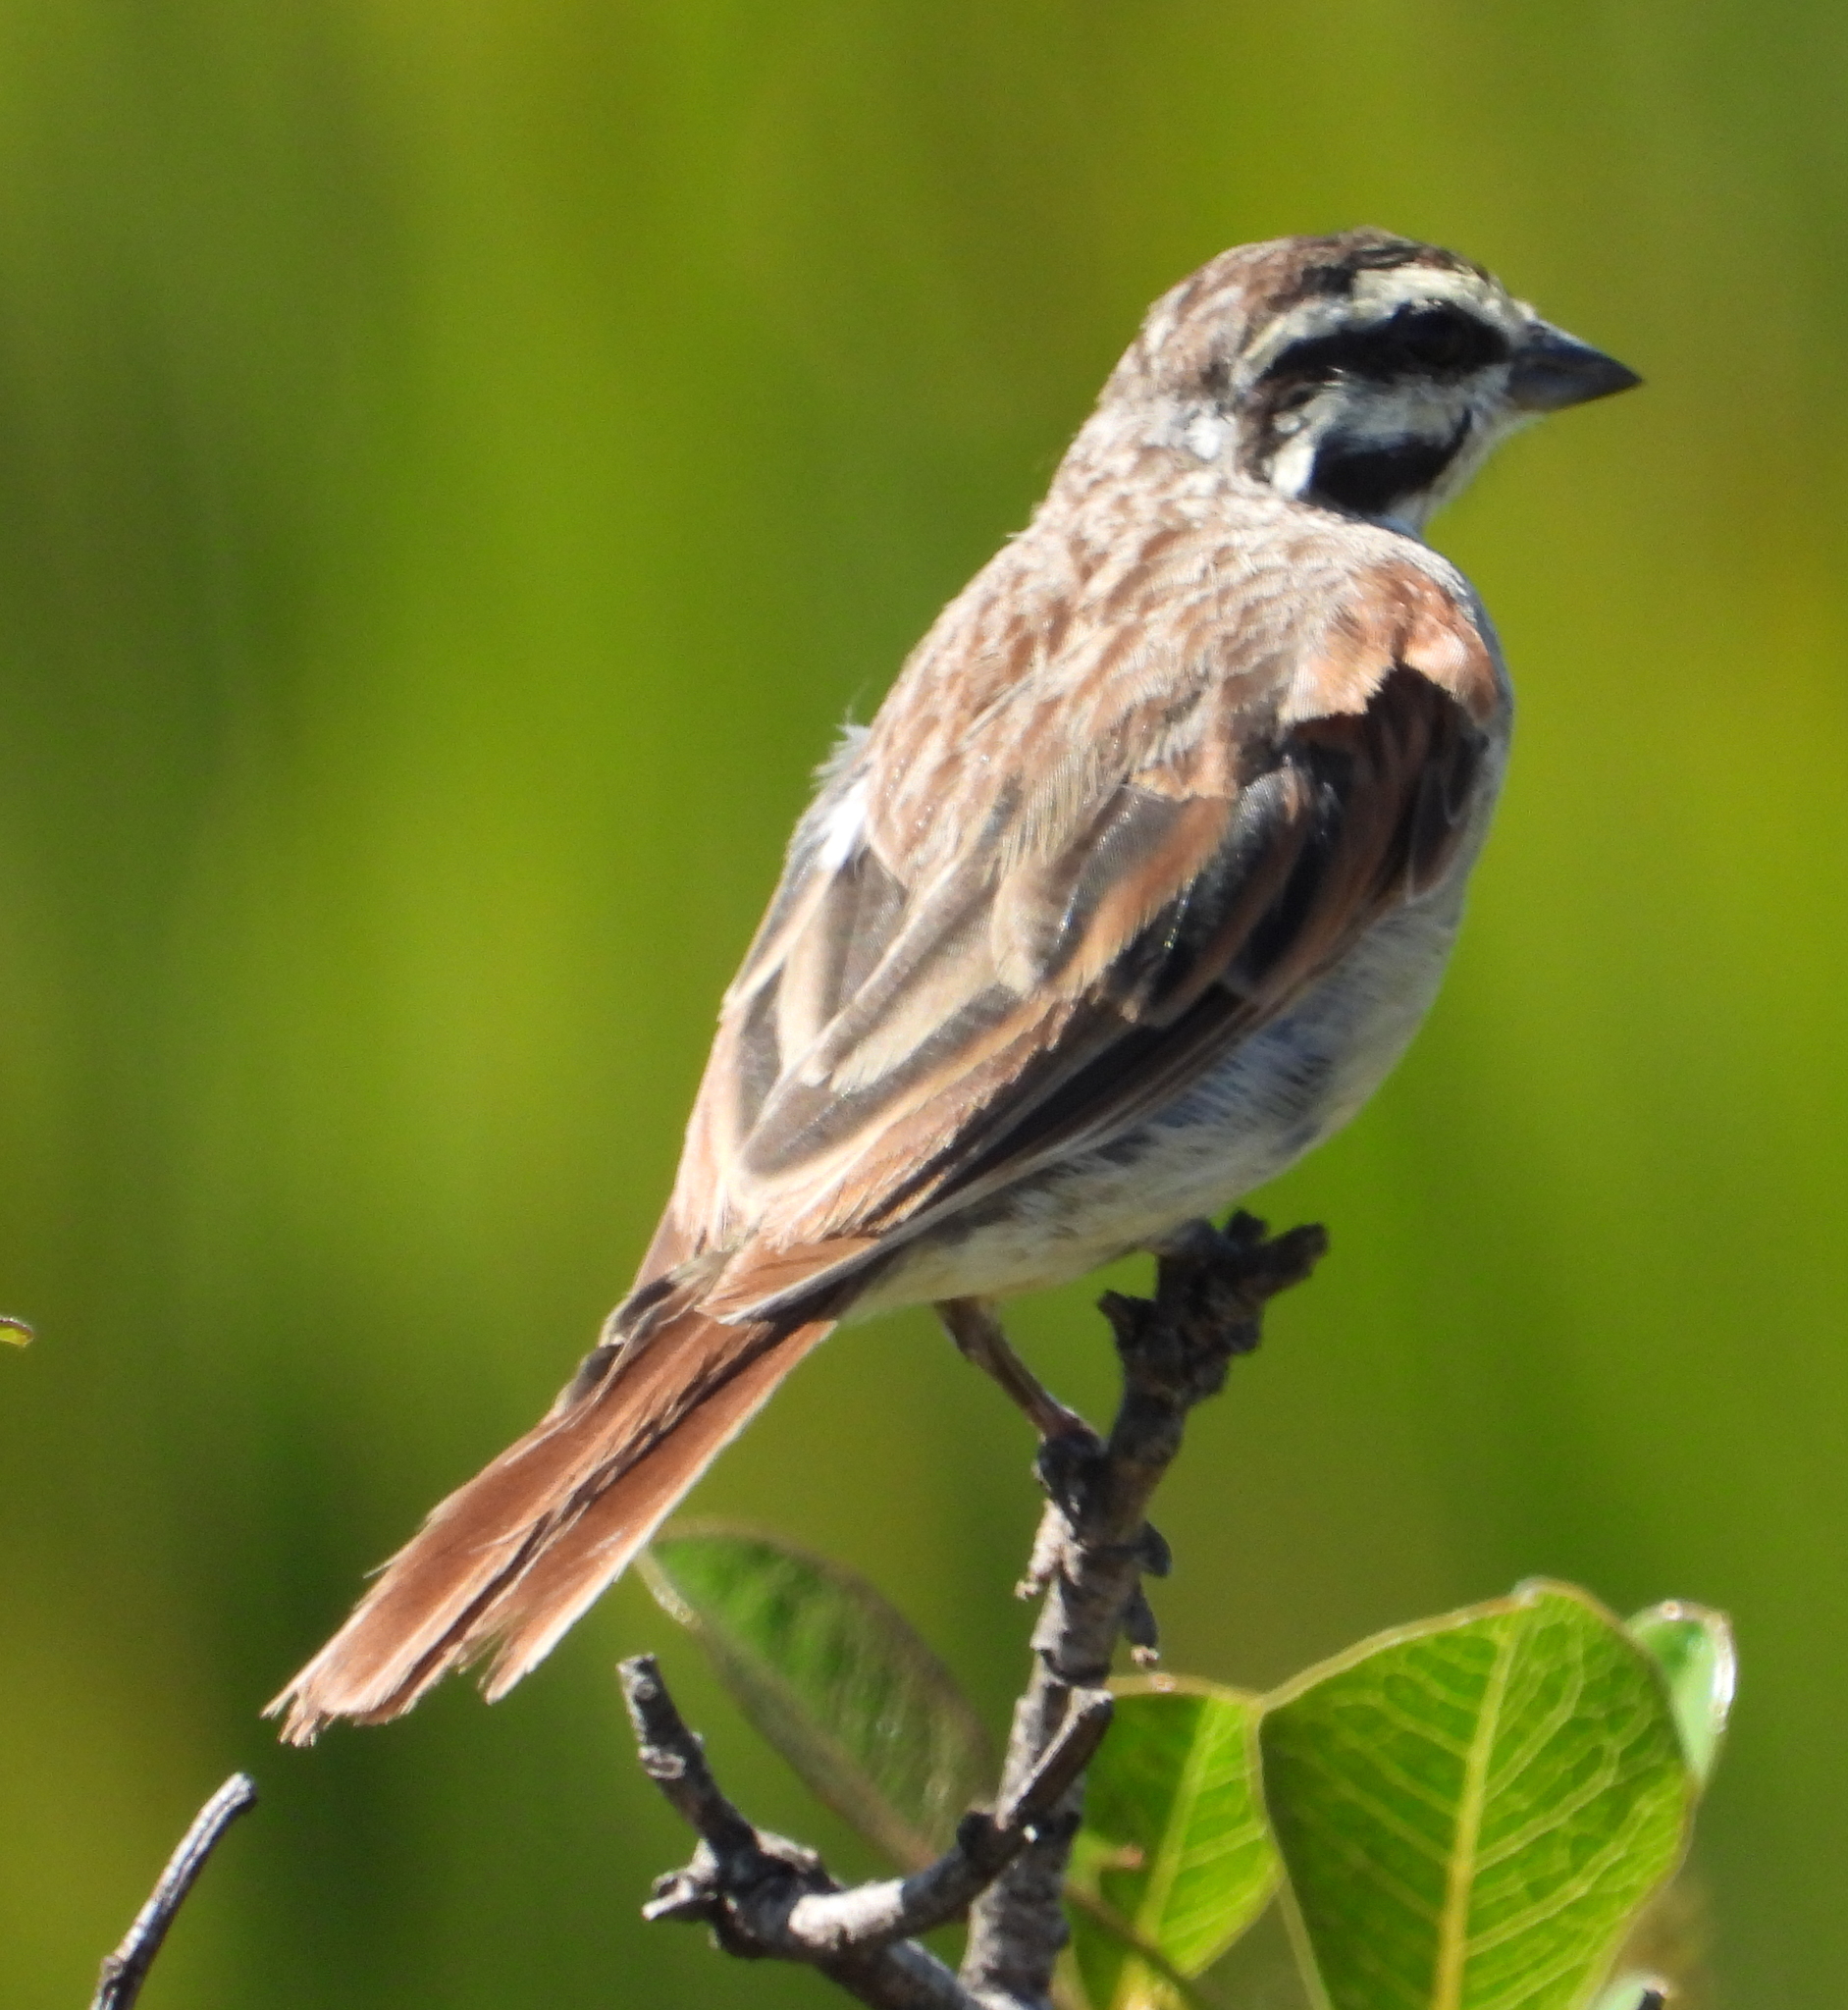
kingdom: Animalia
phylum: Chordata
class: Aves
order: Passeriformes
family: Emberizidae
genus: Emberiza
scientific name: Emberiza capensis
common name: Cape bunting
